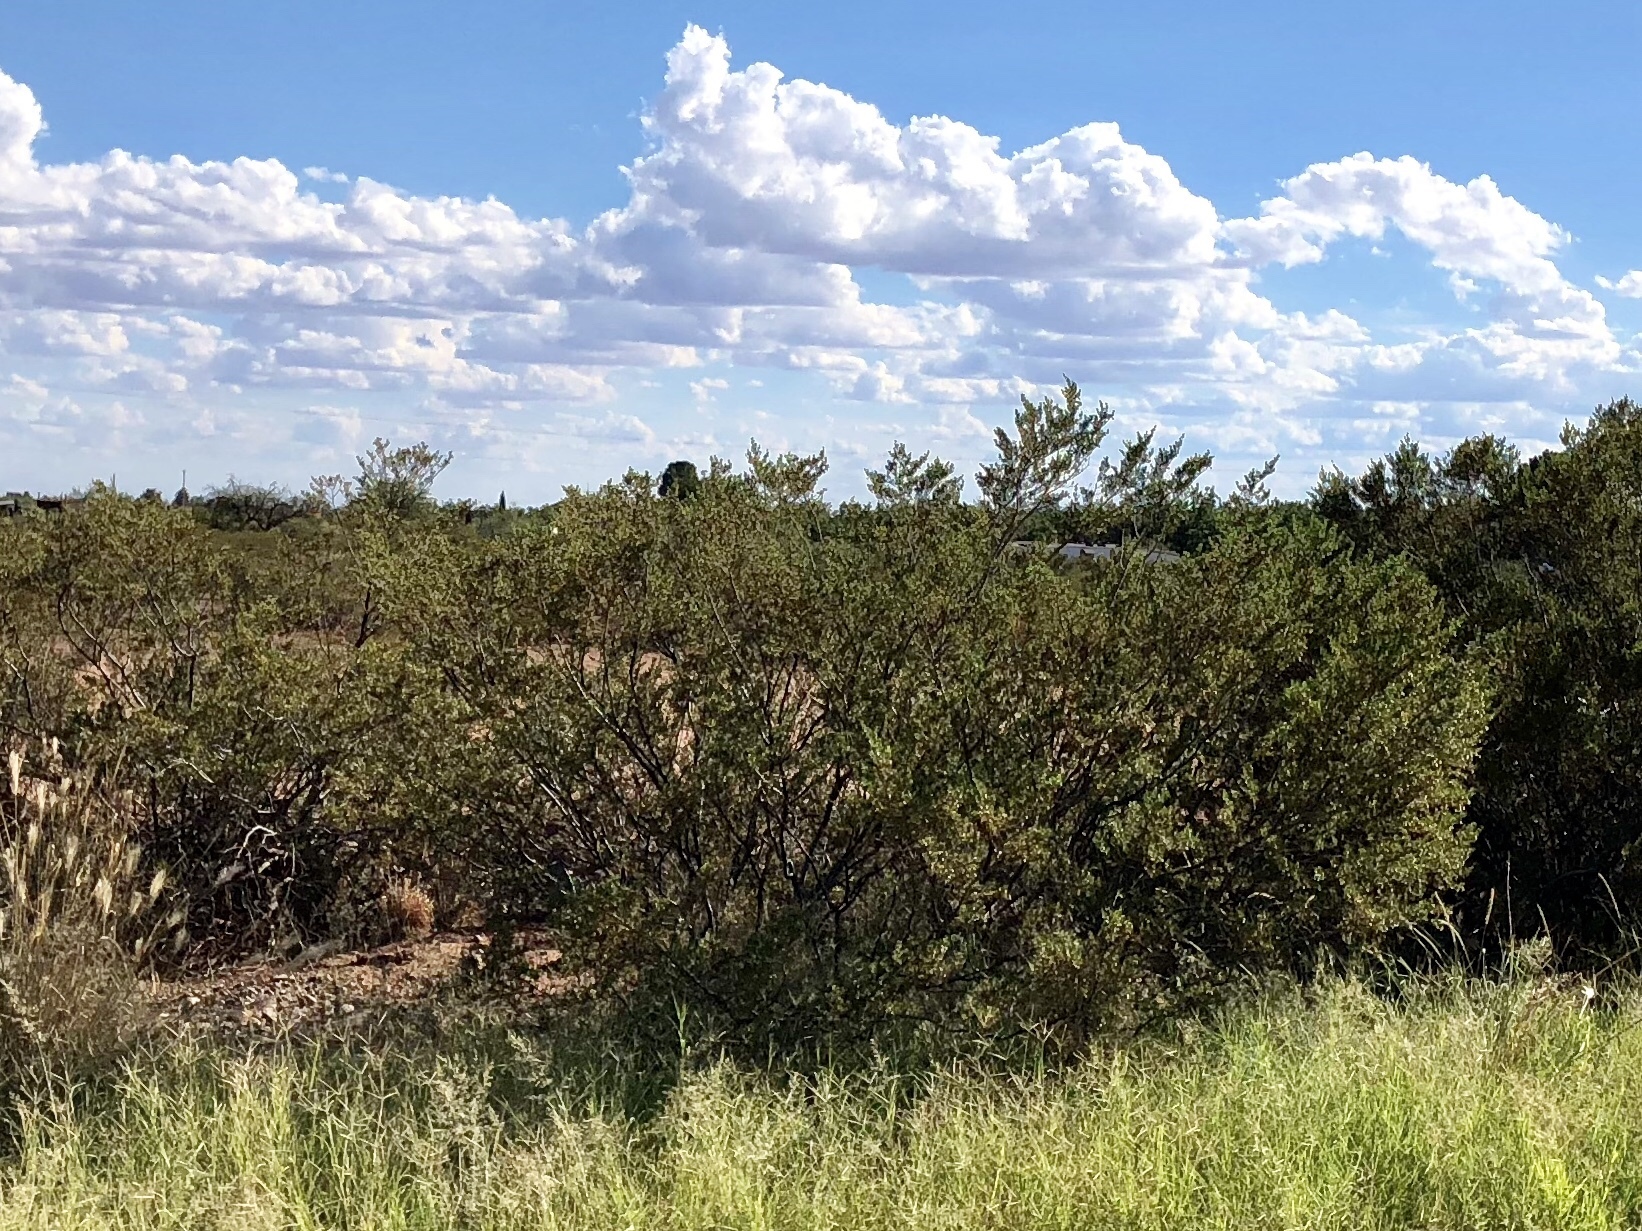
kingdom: Plantae
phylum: Tracheophyta
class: Magnoliopsida
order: Zygophyllales
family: Zygophyllaceae
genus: Larrea
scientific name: Larrea tridentata
